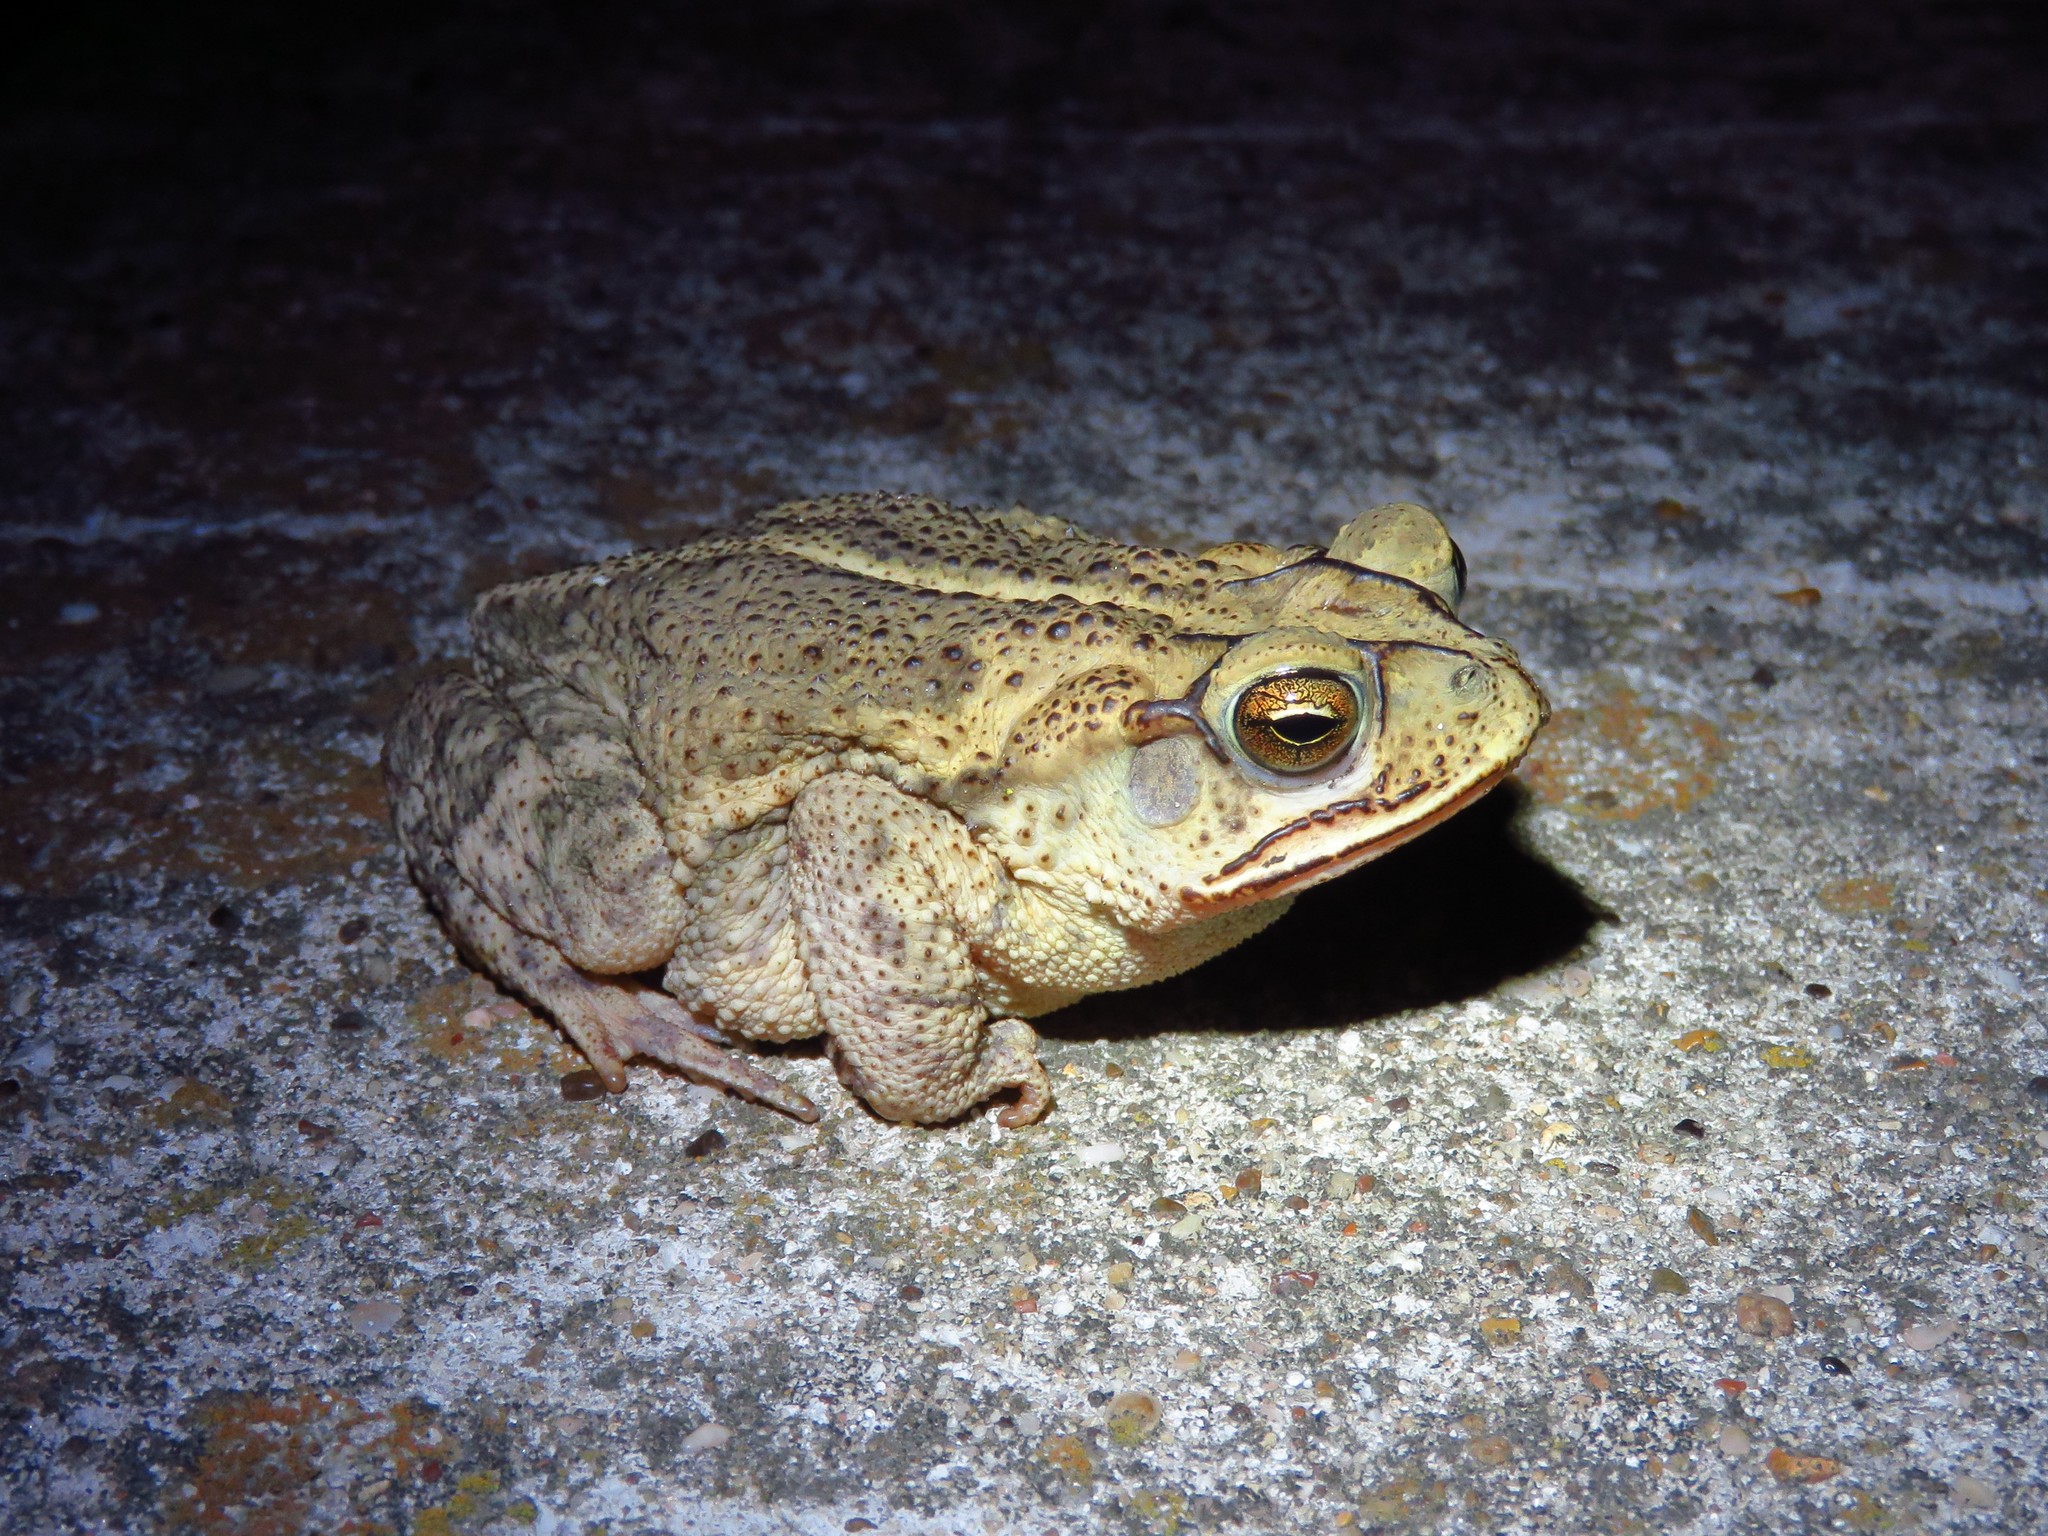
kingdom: Animalia
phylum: Chordata
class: Amphibia
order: Anura
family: Bufonidae
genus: Incilius
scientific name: Incilius nebulifer
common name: Gulf coast toad
